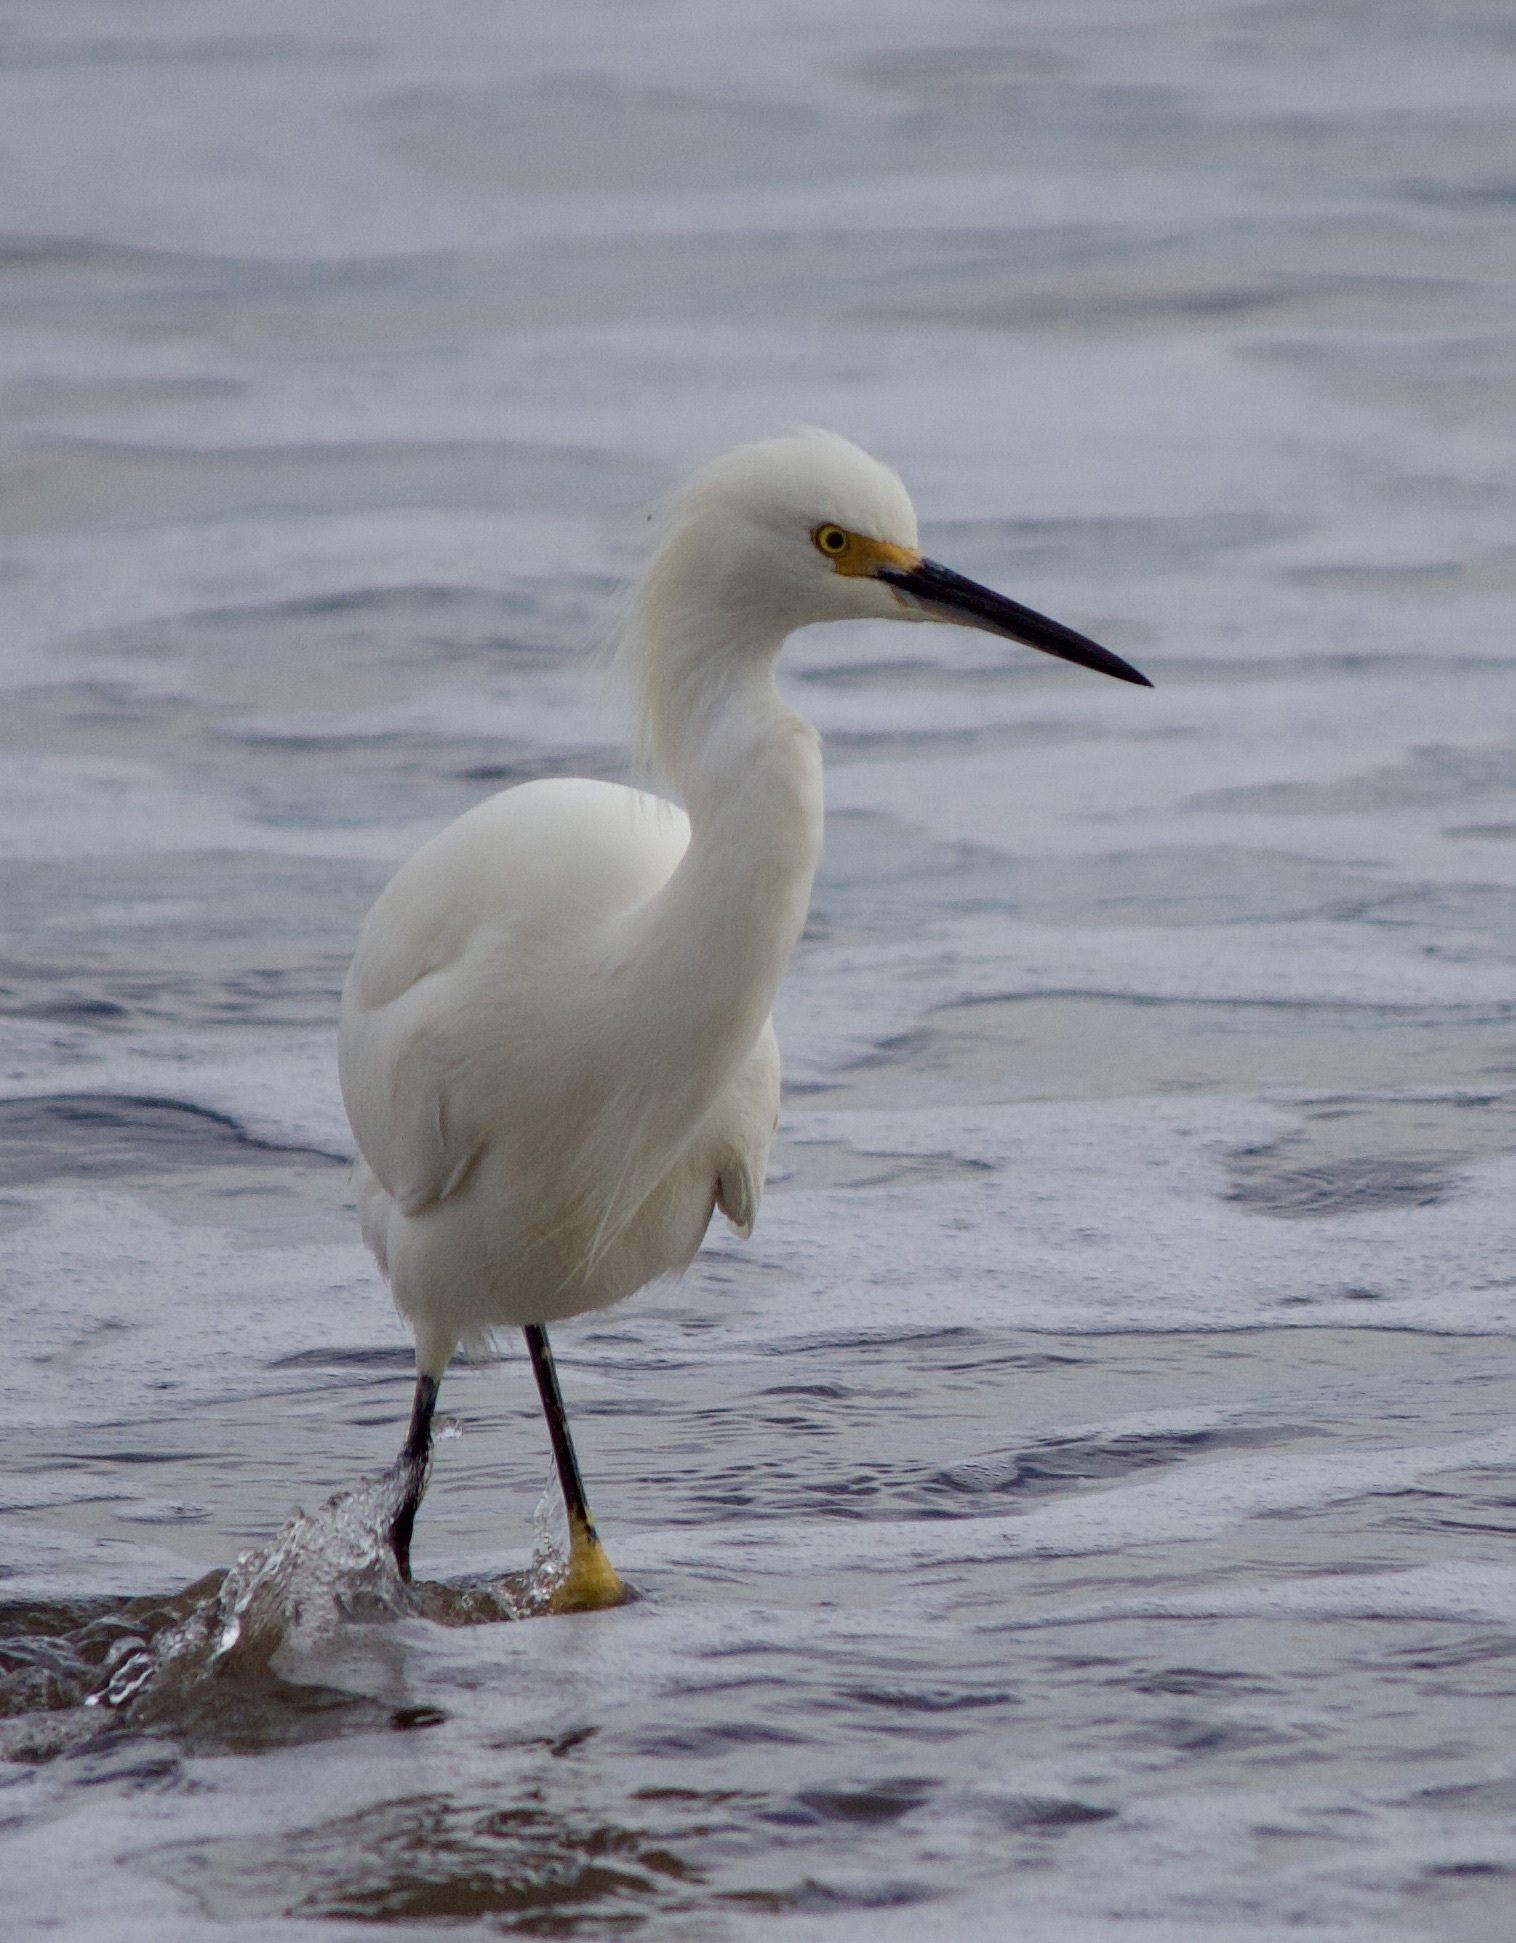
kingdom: Animalia
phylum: Chordata
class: Aves
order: Pelecaniformes
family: Ardeidae
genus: Egretta
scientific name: Egretta thula
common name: Snowy egret
